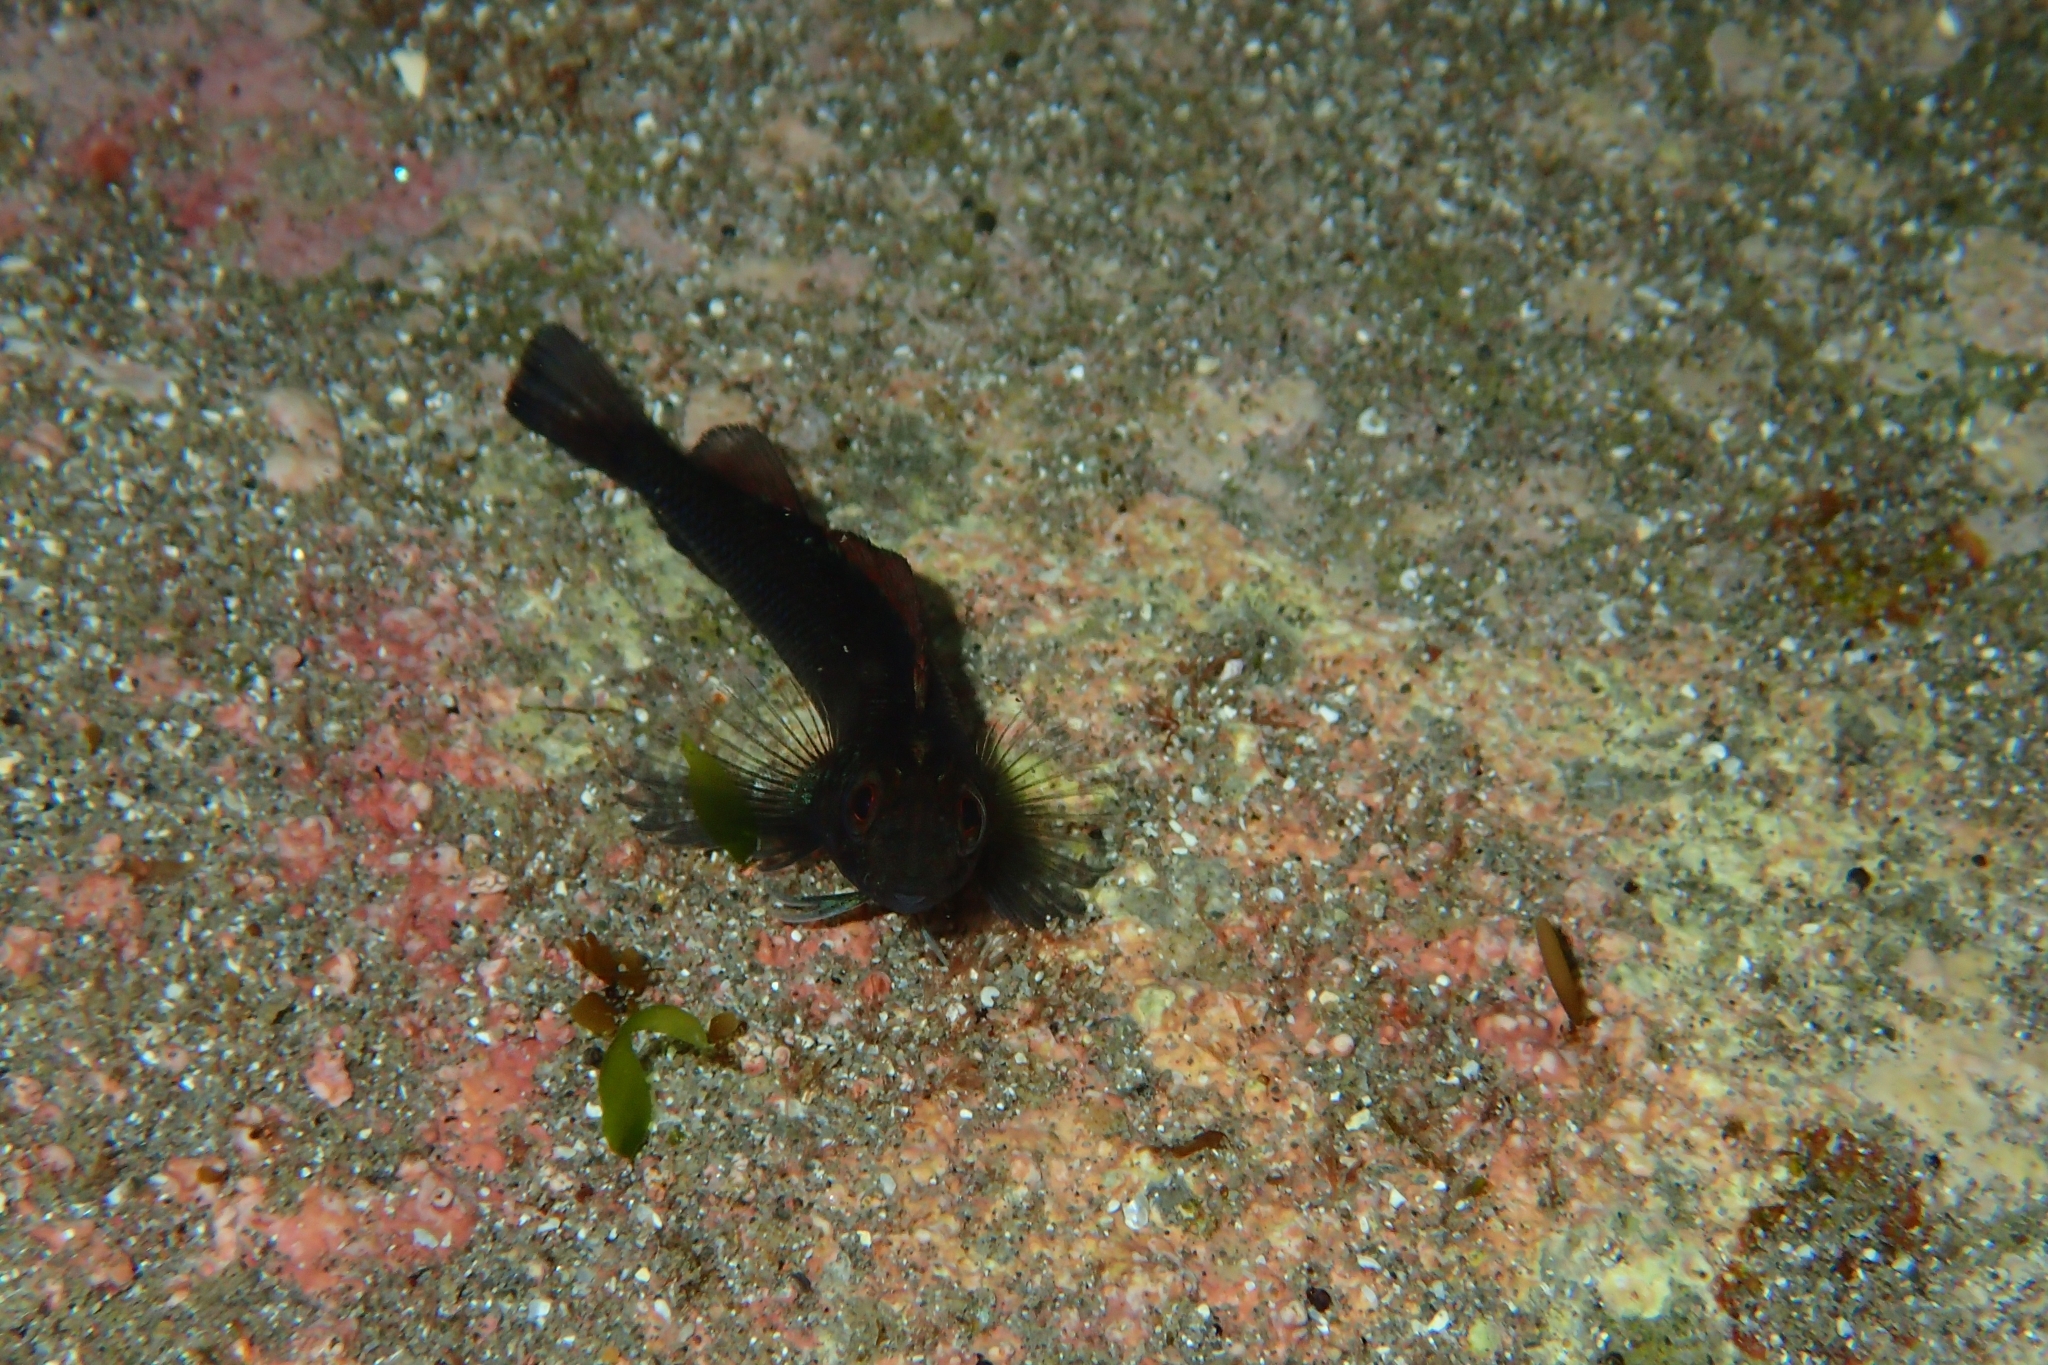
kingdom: Animalia
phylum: Chordata
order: Perciformes
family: Tripterygiidae
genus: Forsterygion
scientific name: Forsterygion lapillum
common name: Common triplefin
